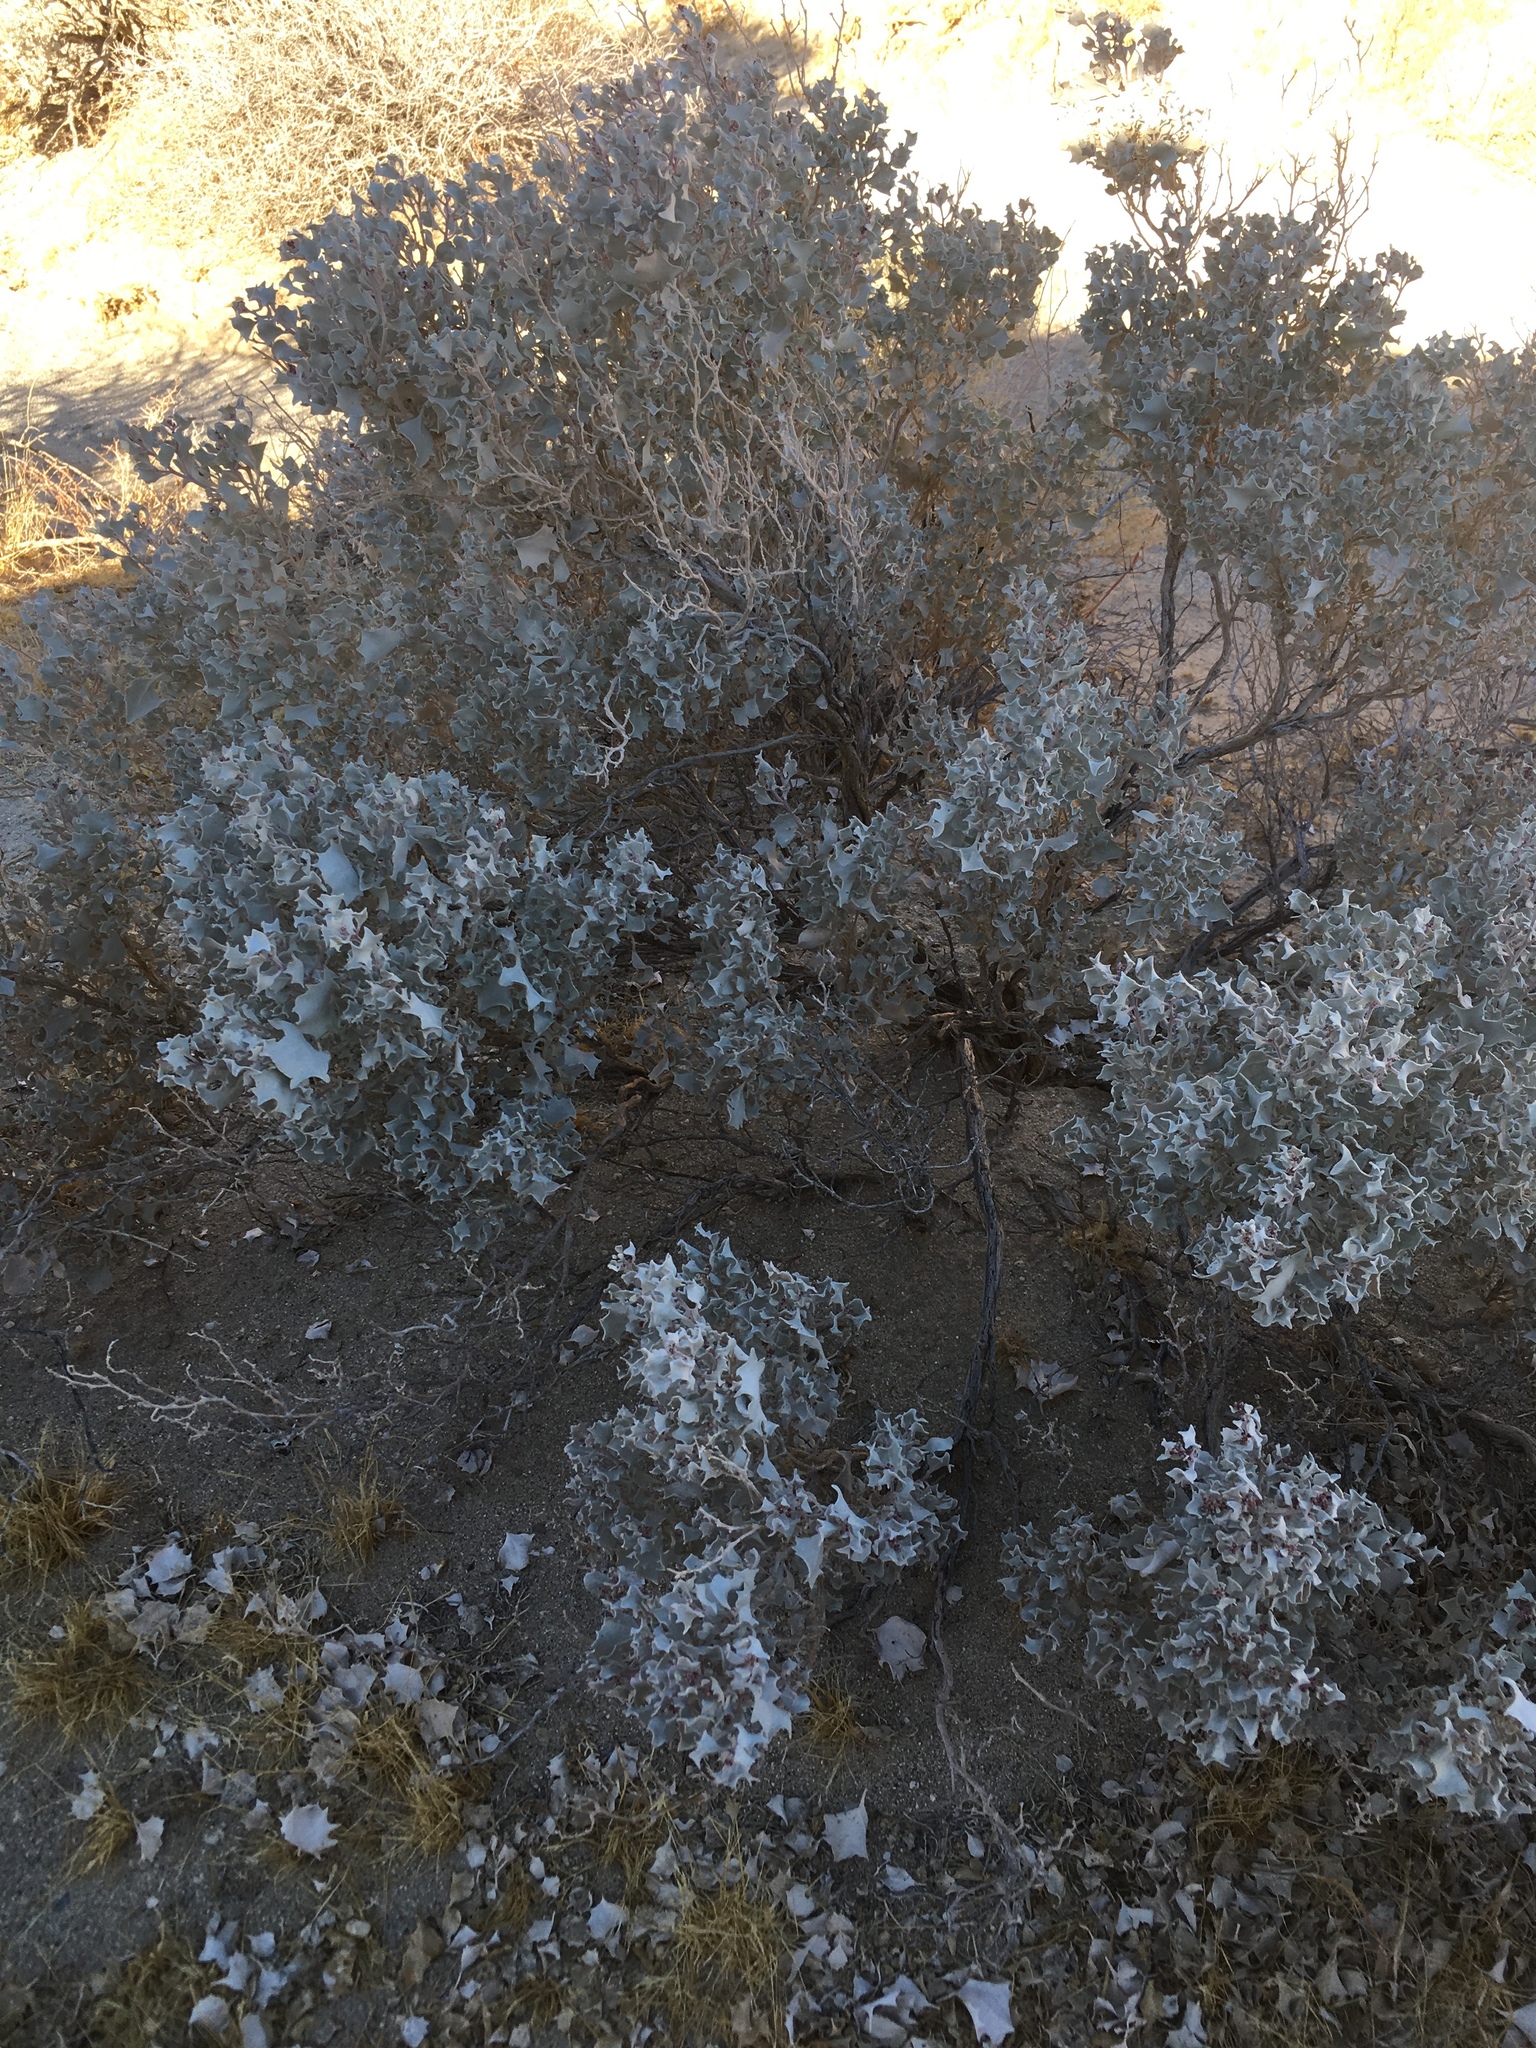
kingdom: Plantae
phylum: Tracheophyta
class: Magnoliopsida
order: Caryophyllales
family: Amaranthaceae
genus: Atriplex
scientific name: Atriplex hymenelytra
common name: Desert-holly
